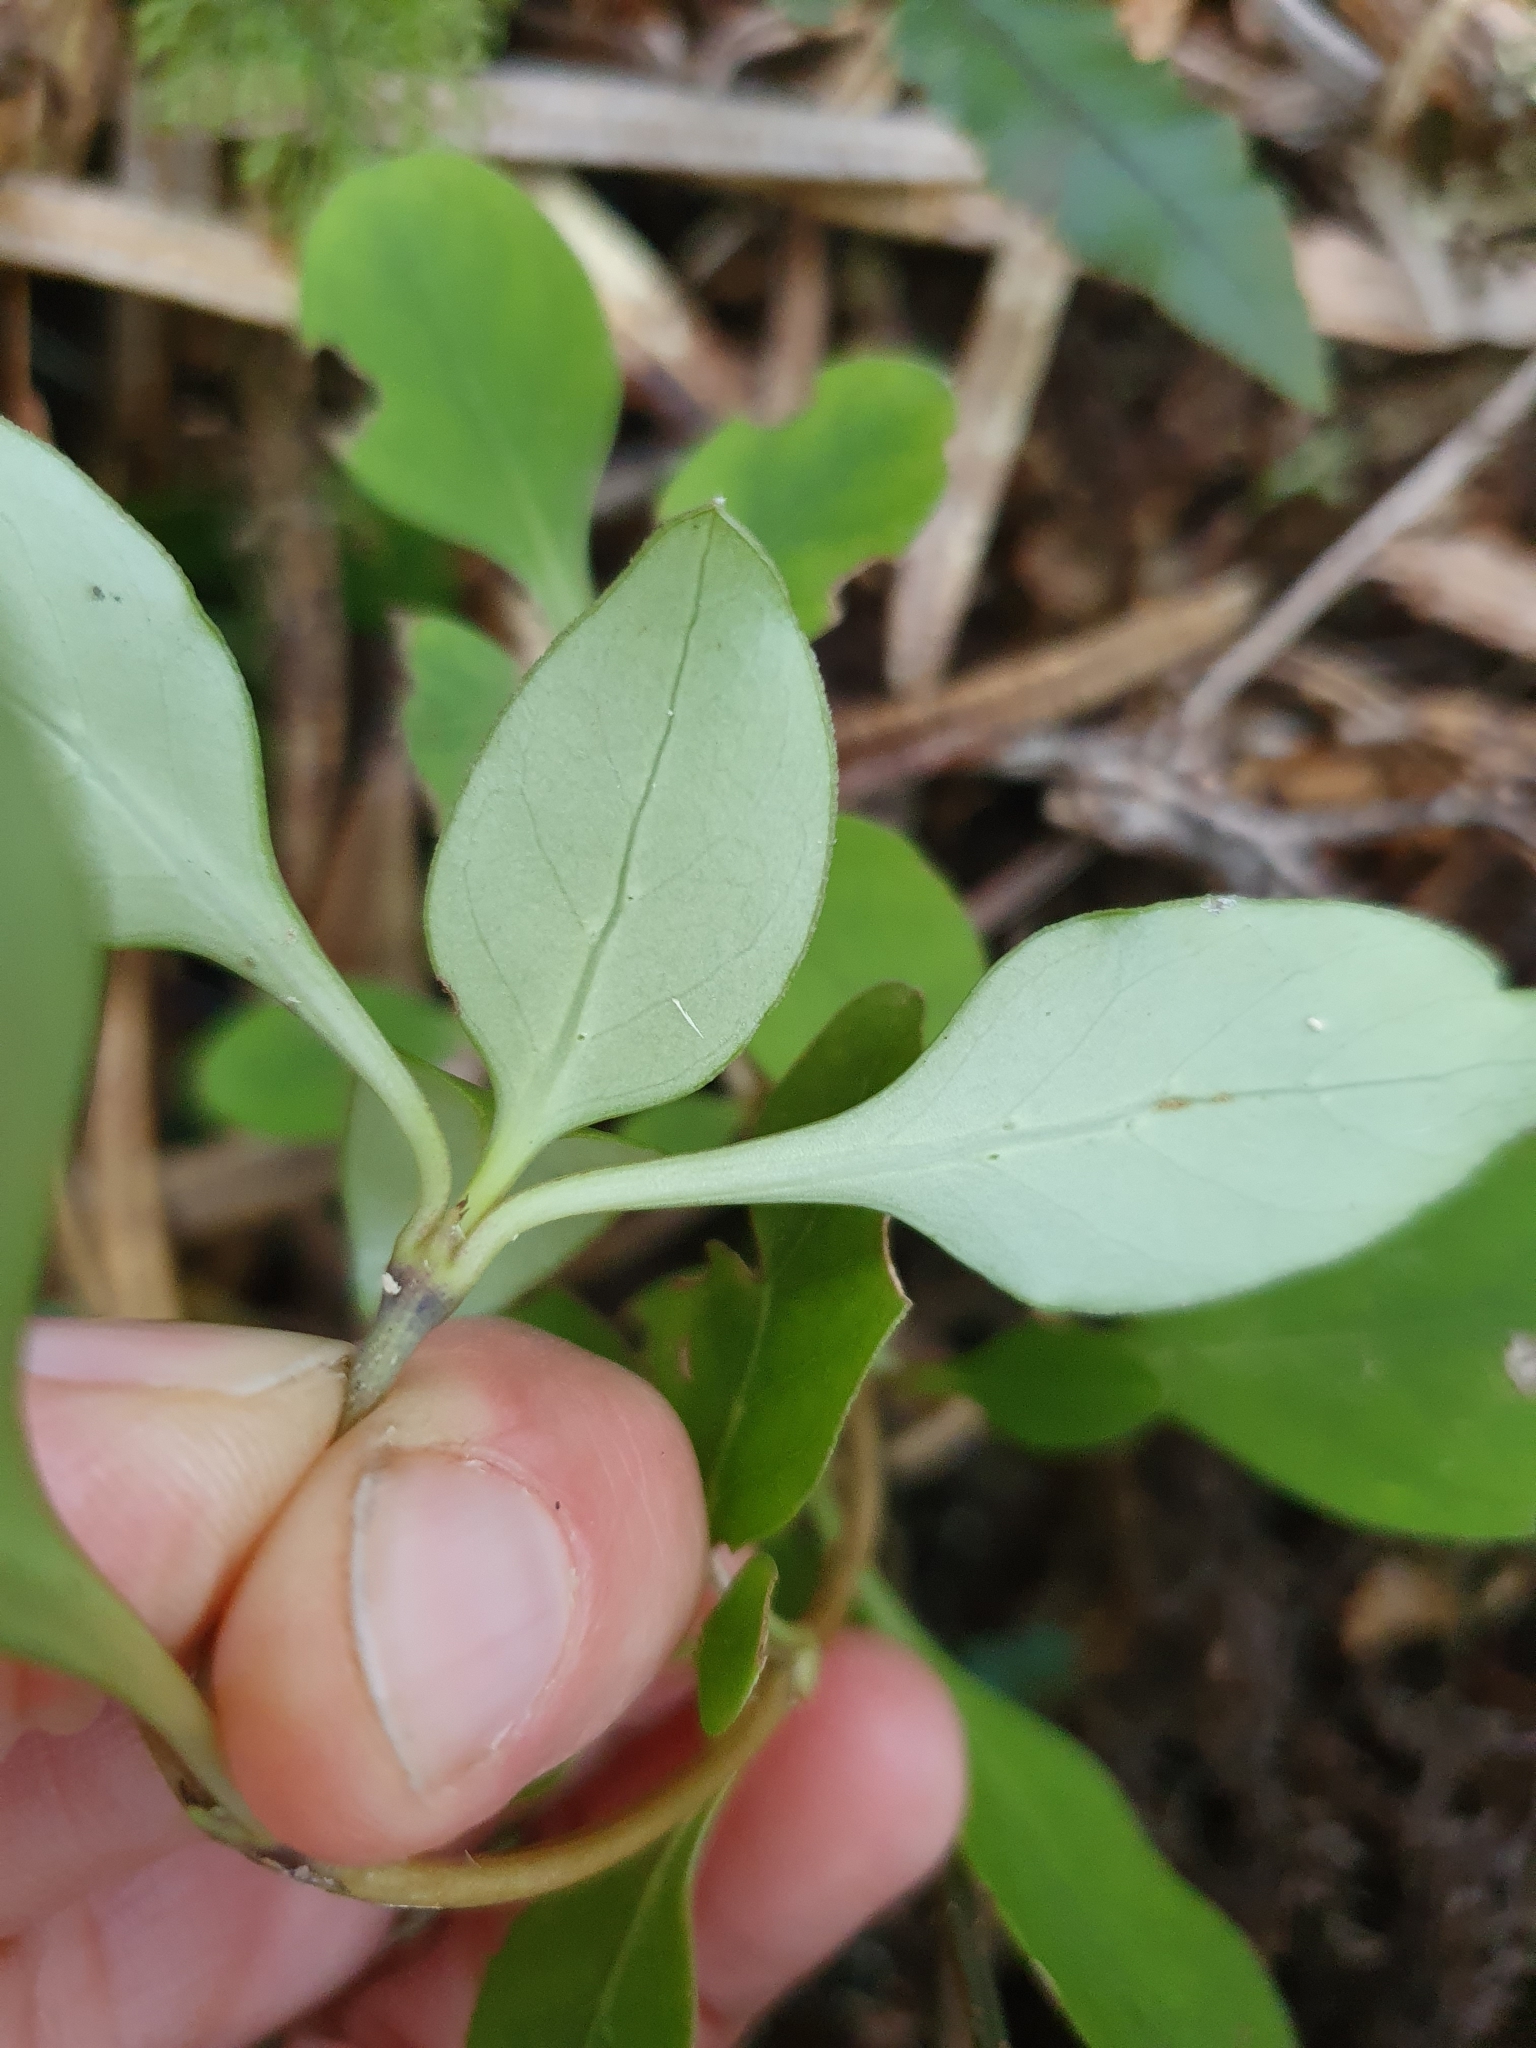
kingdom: Plantae
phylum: Tracheophyta
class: Magnoliopsida
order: Gentianales
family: Rubiaceae
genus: Coprosma
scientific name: Coprosma foetidissima
